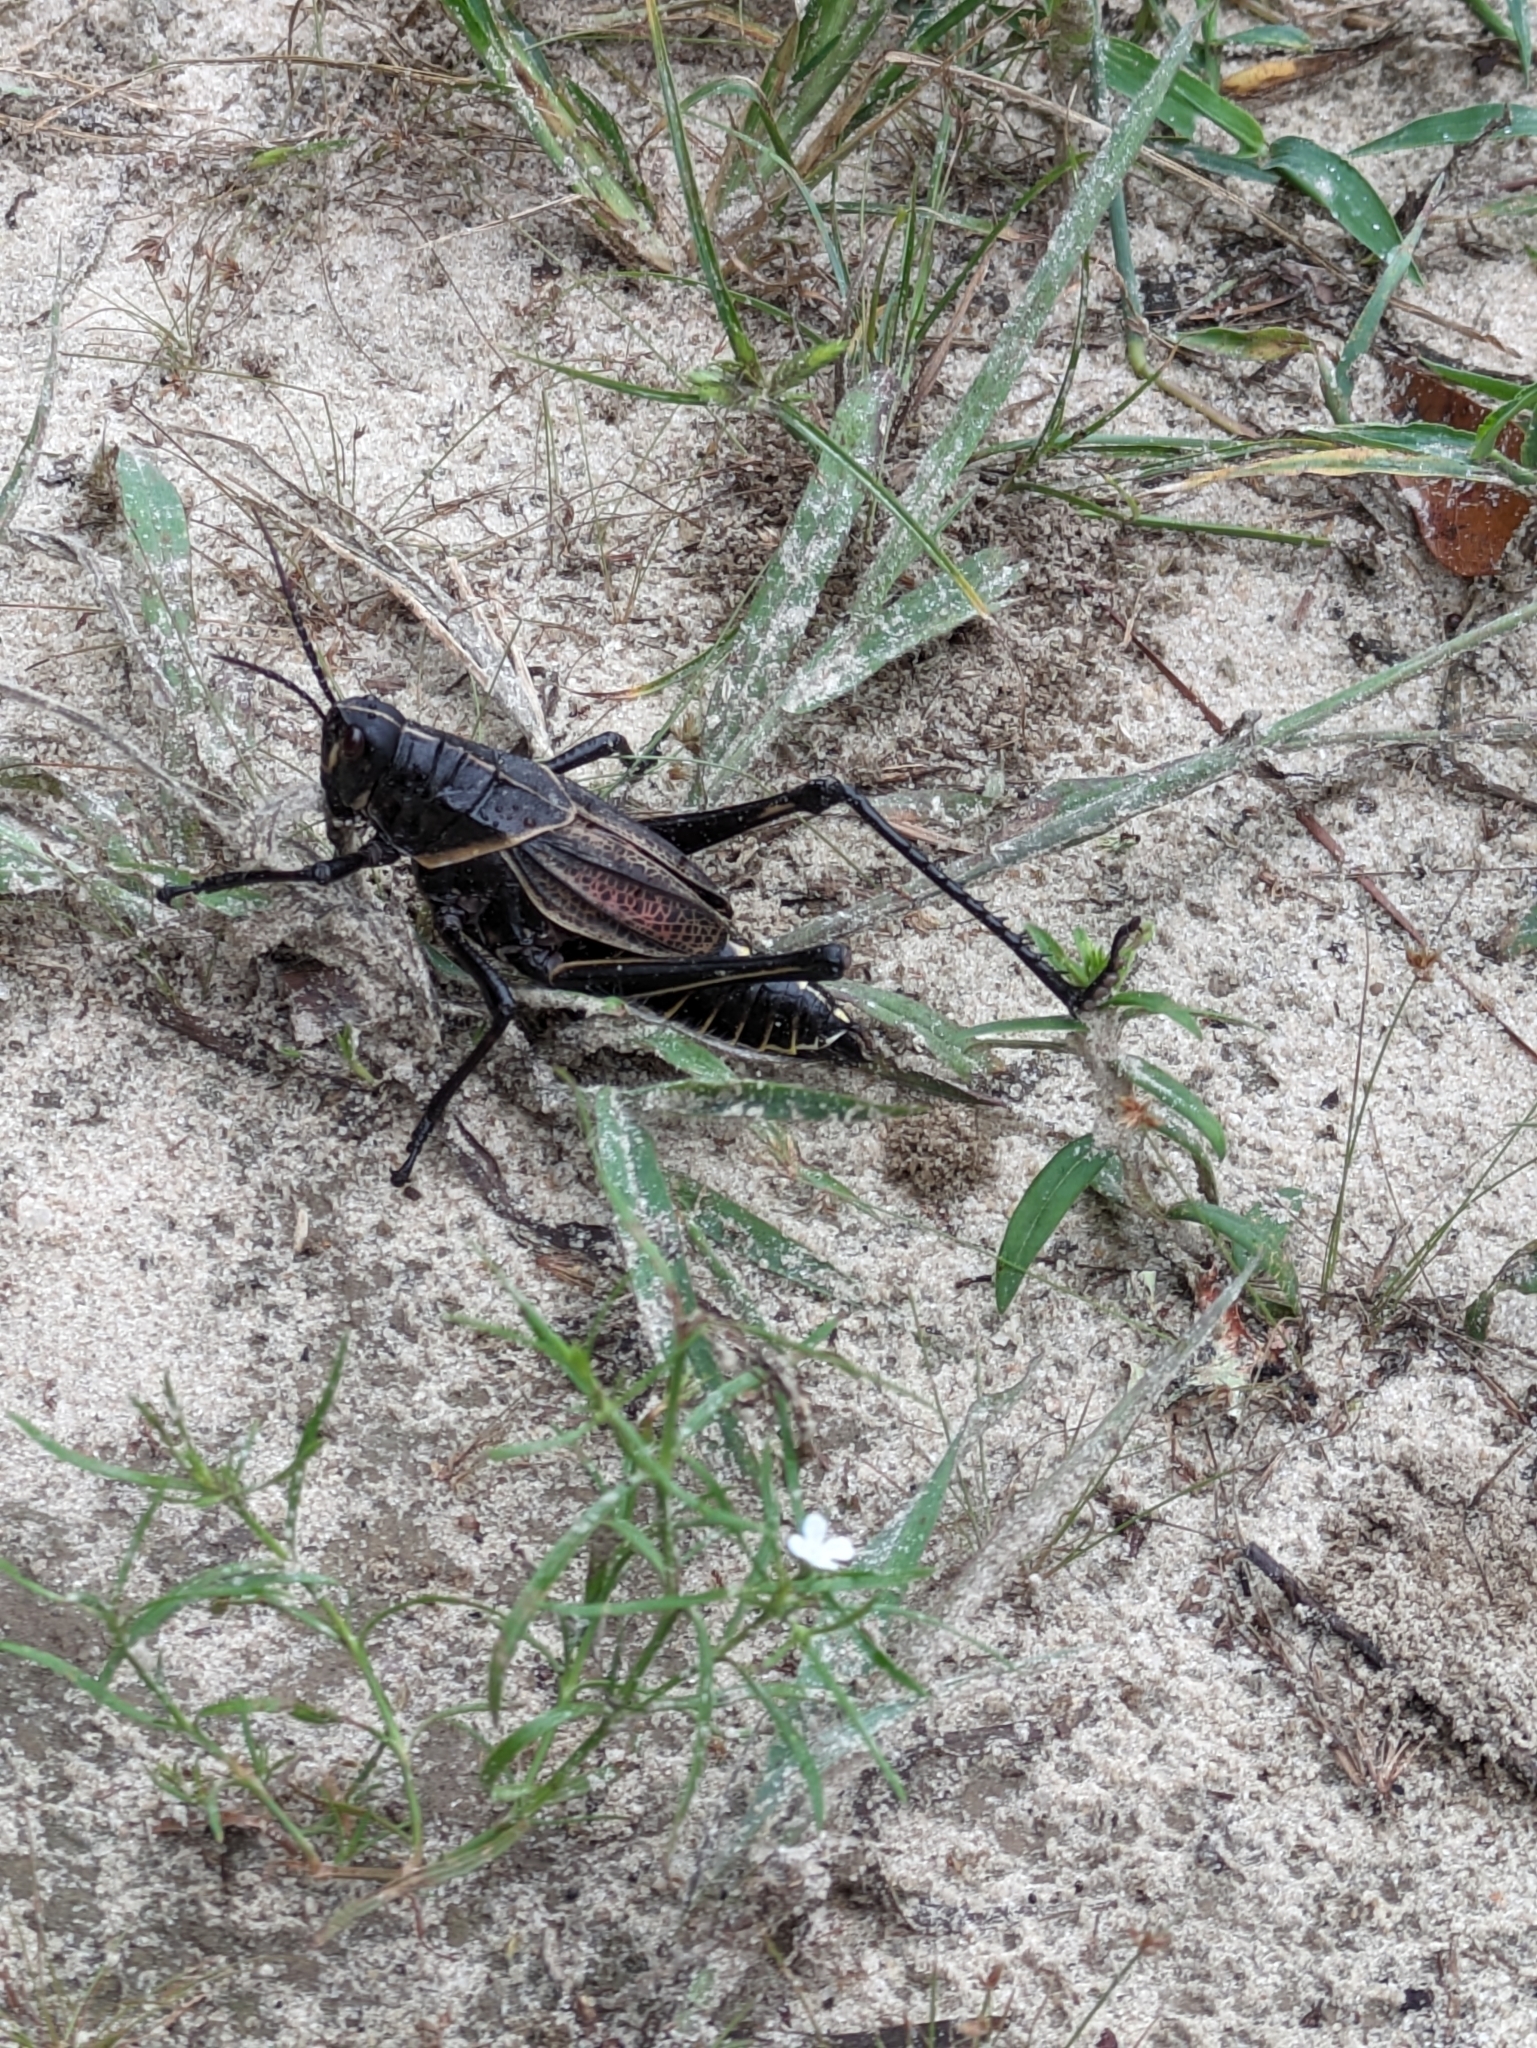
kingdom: Animalia
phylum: Arthropoda
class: Insecta
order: Orthoptera
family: Romaleidae
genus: Romalea
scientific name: Romalea microptera
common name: Eastern lubber grasshopper
